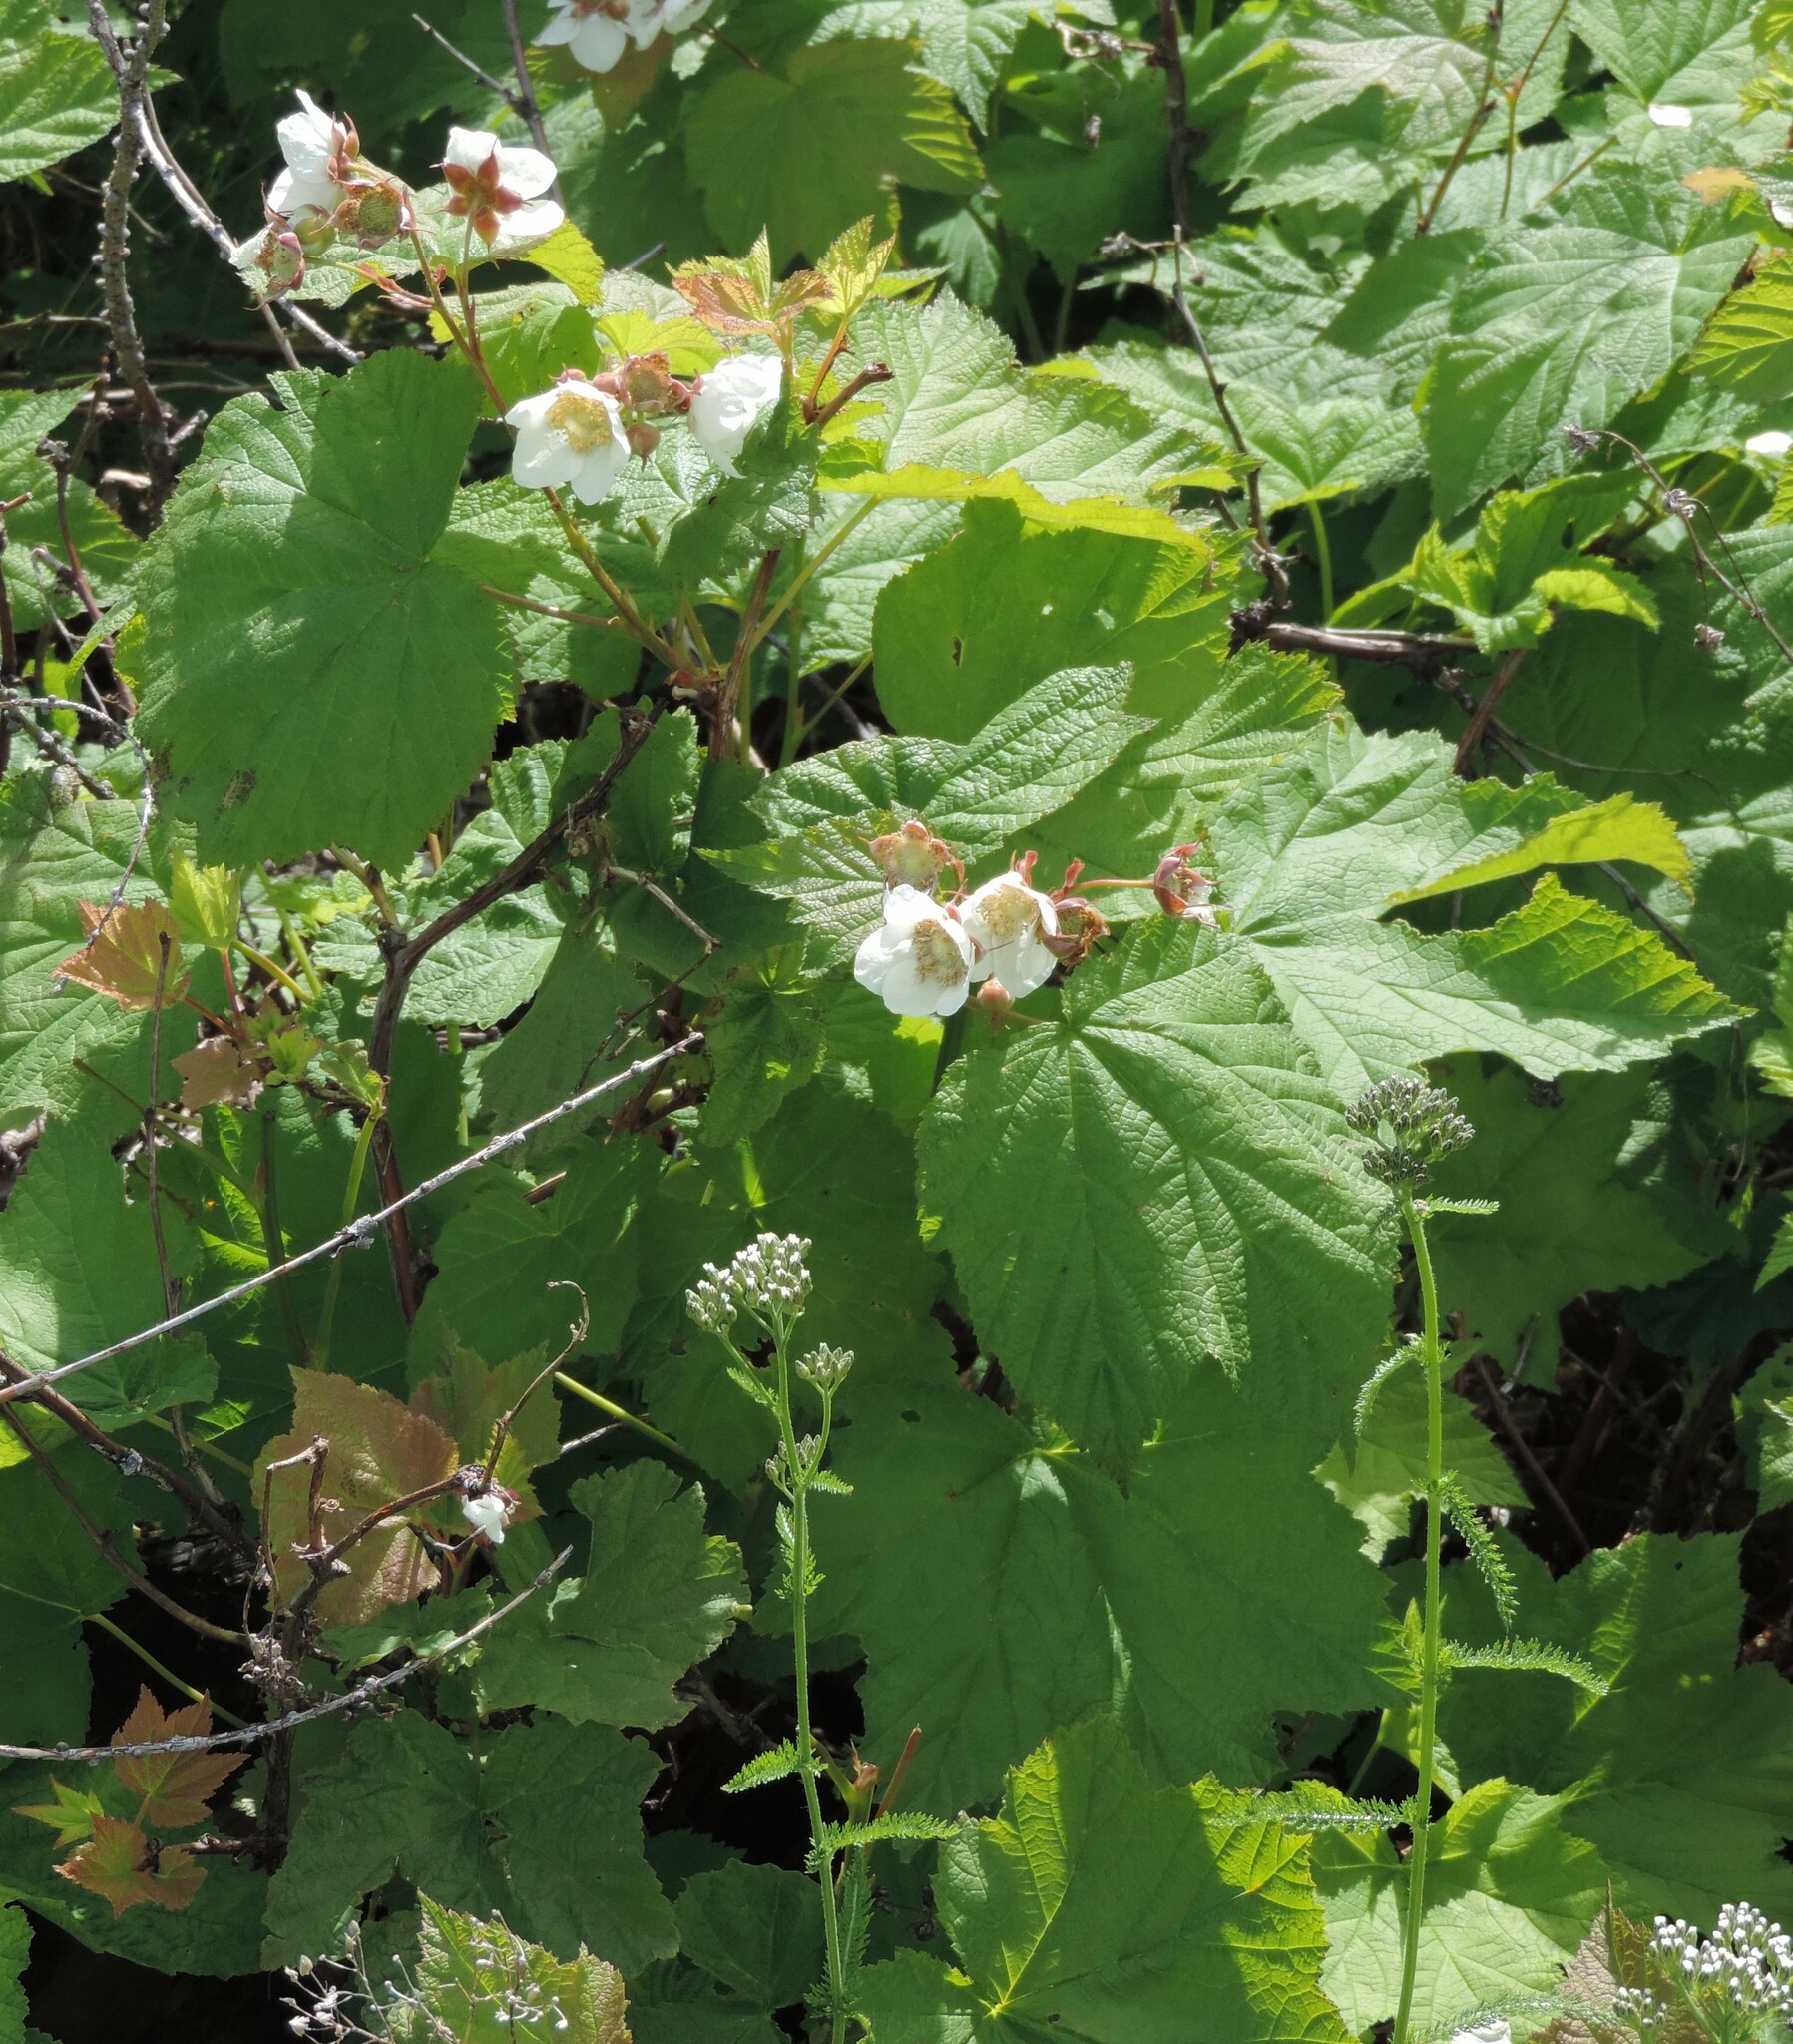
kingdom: Plantae
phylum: Tracheophyta
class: Magnoliopsida
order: Rosales
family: Rosaceae
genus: Rubus
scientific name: Rubus parviflorus
